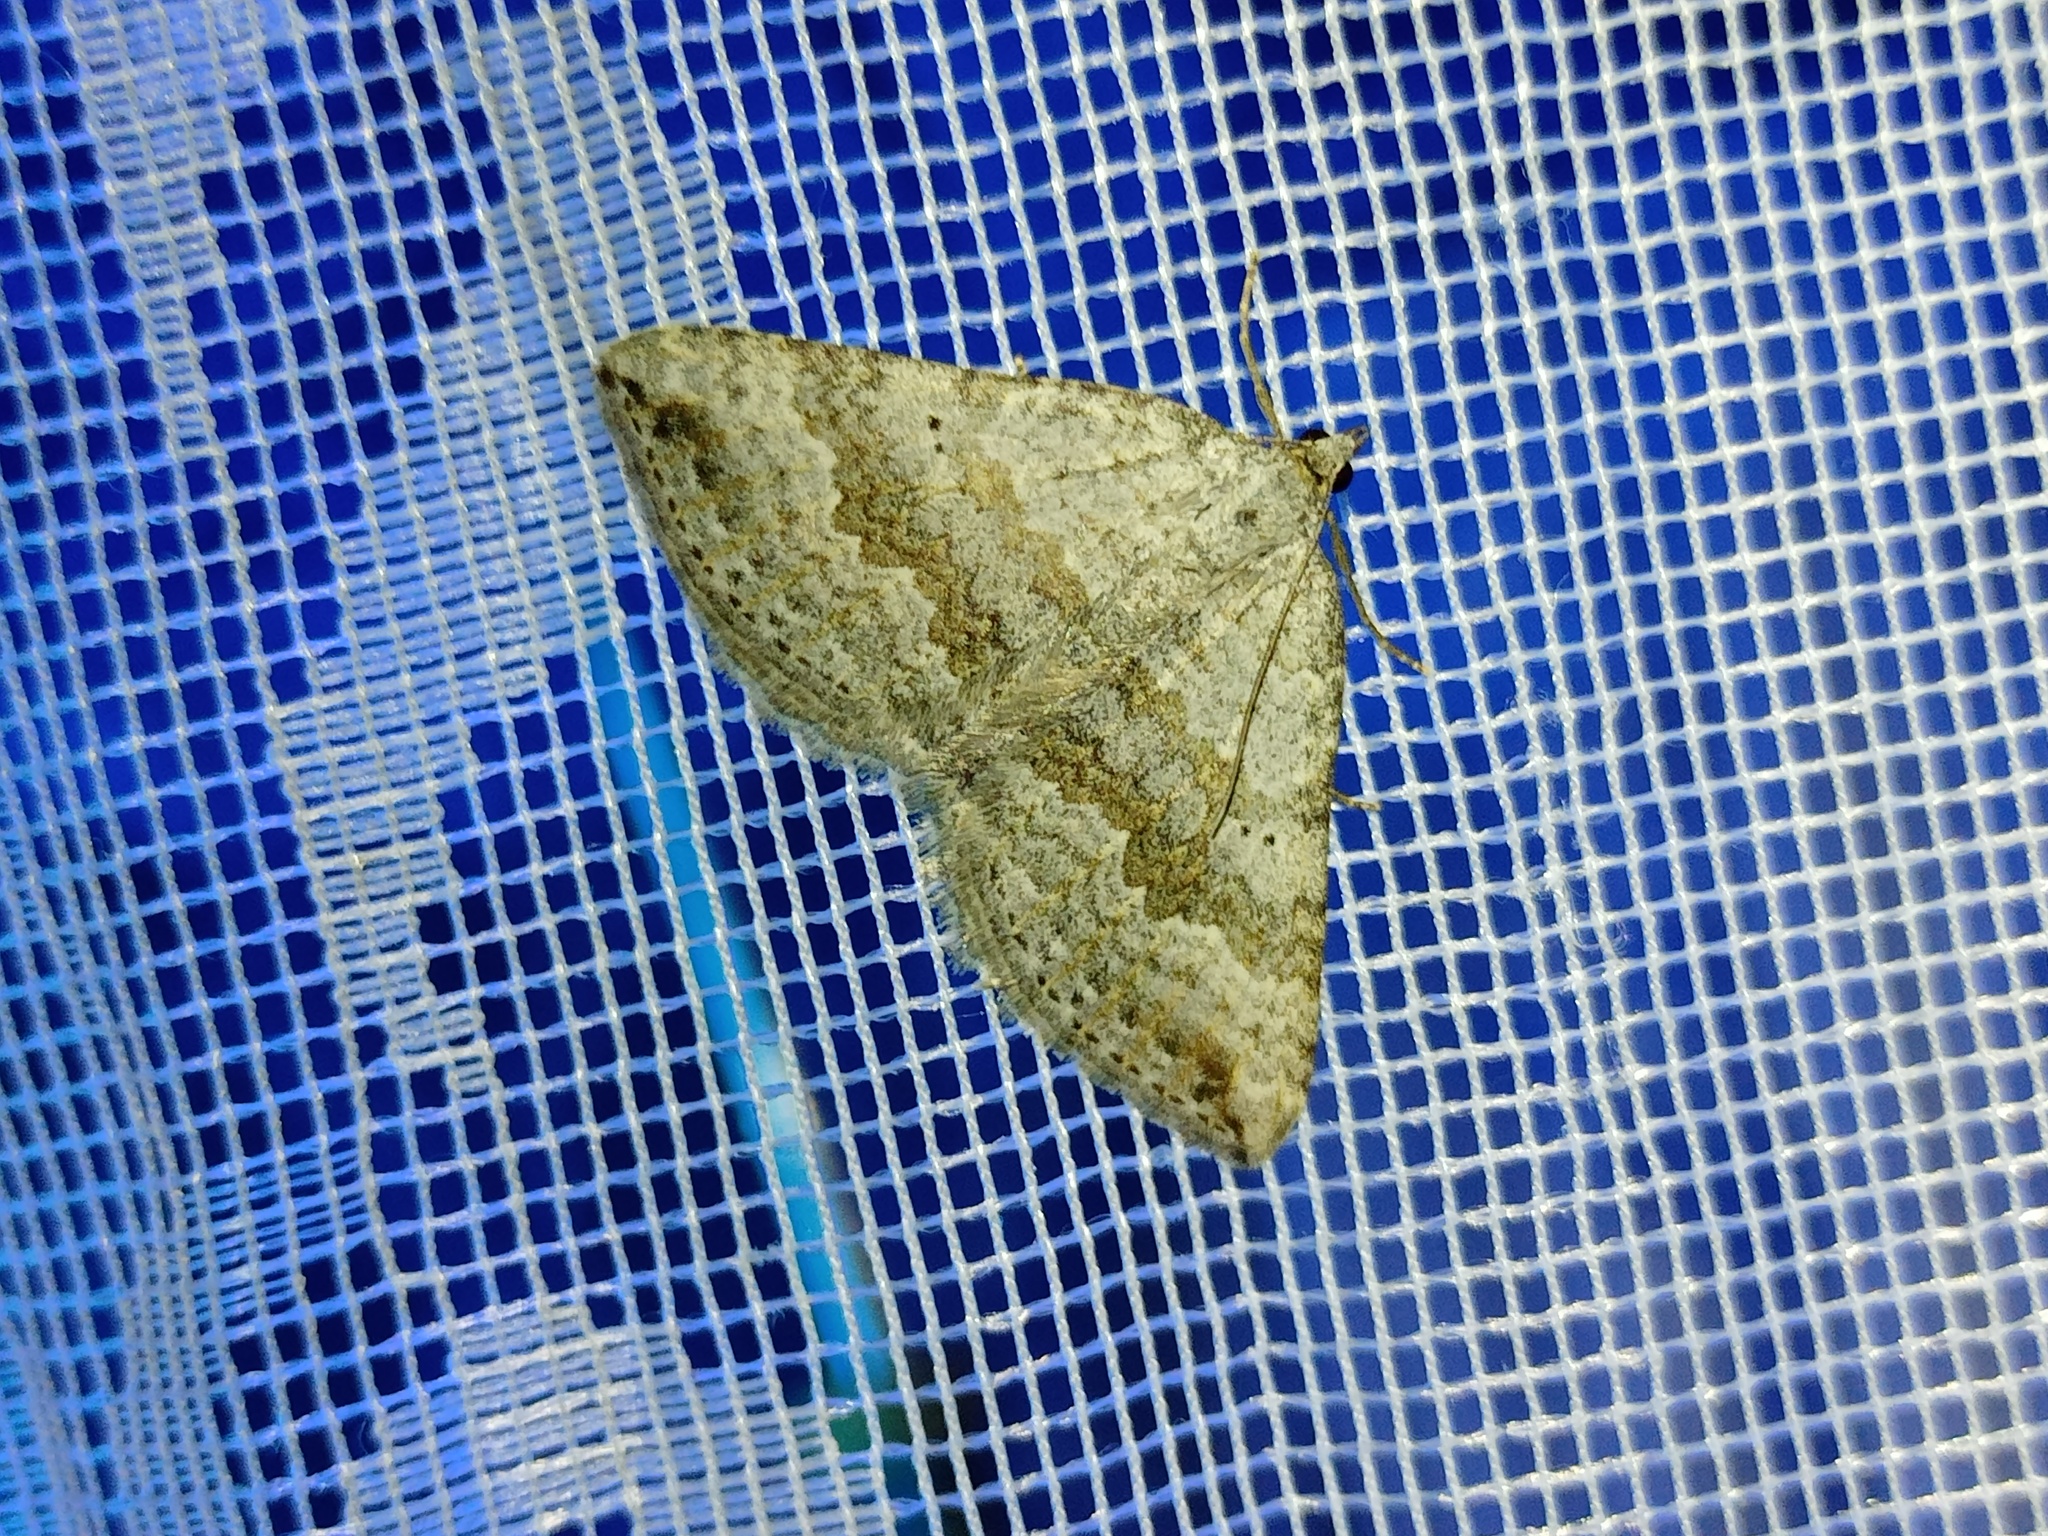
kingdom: Animalia
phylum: Arthropoda
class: Insecta
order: Lepidoptera
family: Geometridae
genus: Scotopteryx
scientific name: Scotopteryx bipunctaria
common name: Chalk carpet
